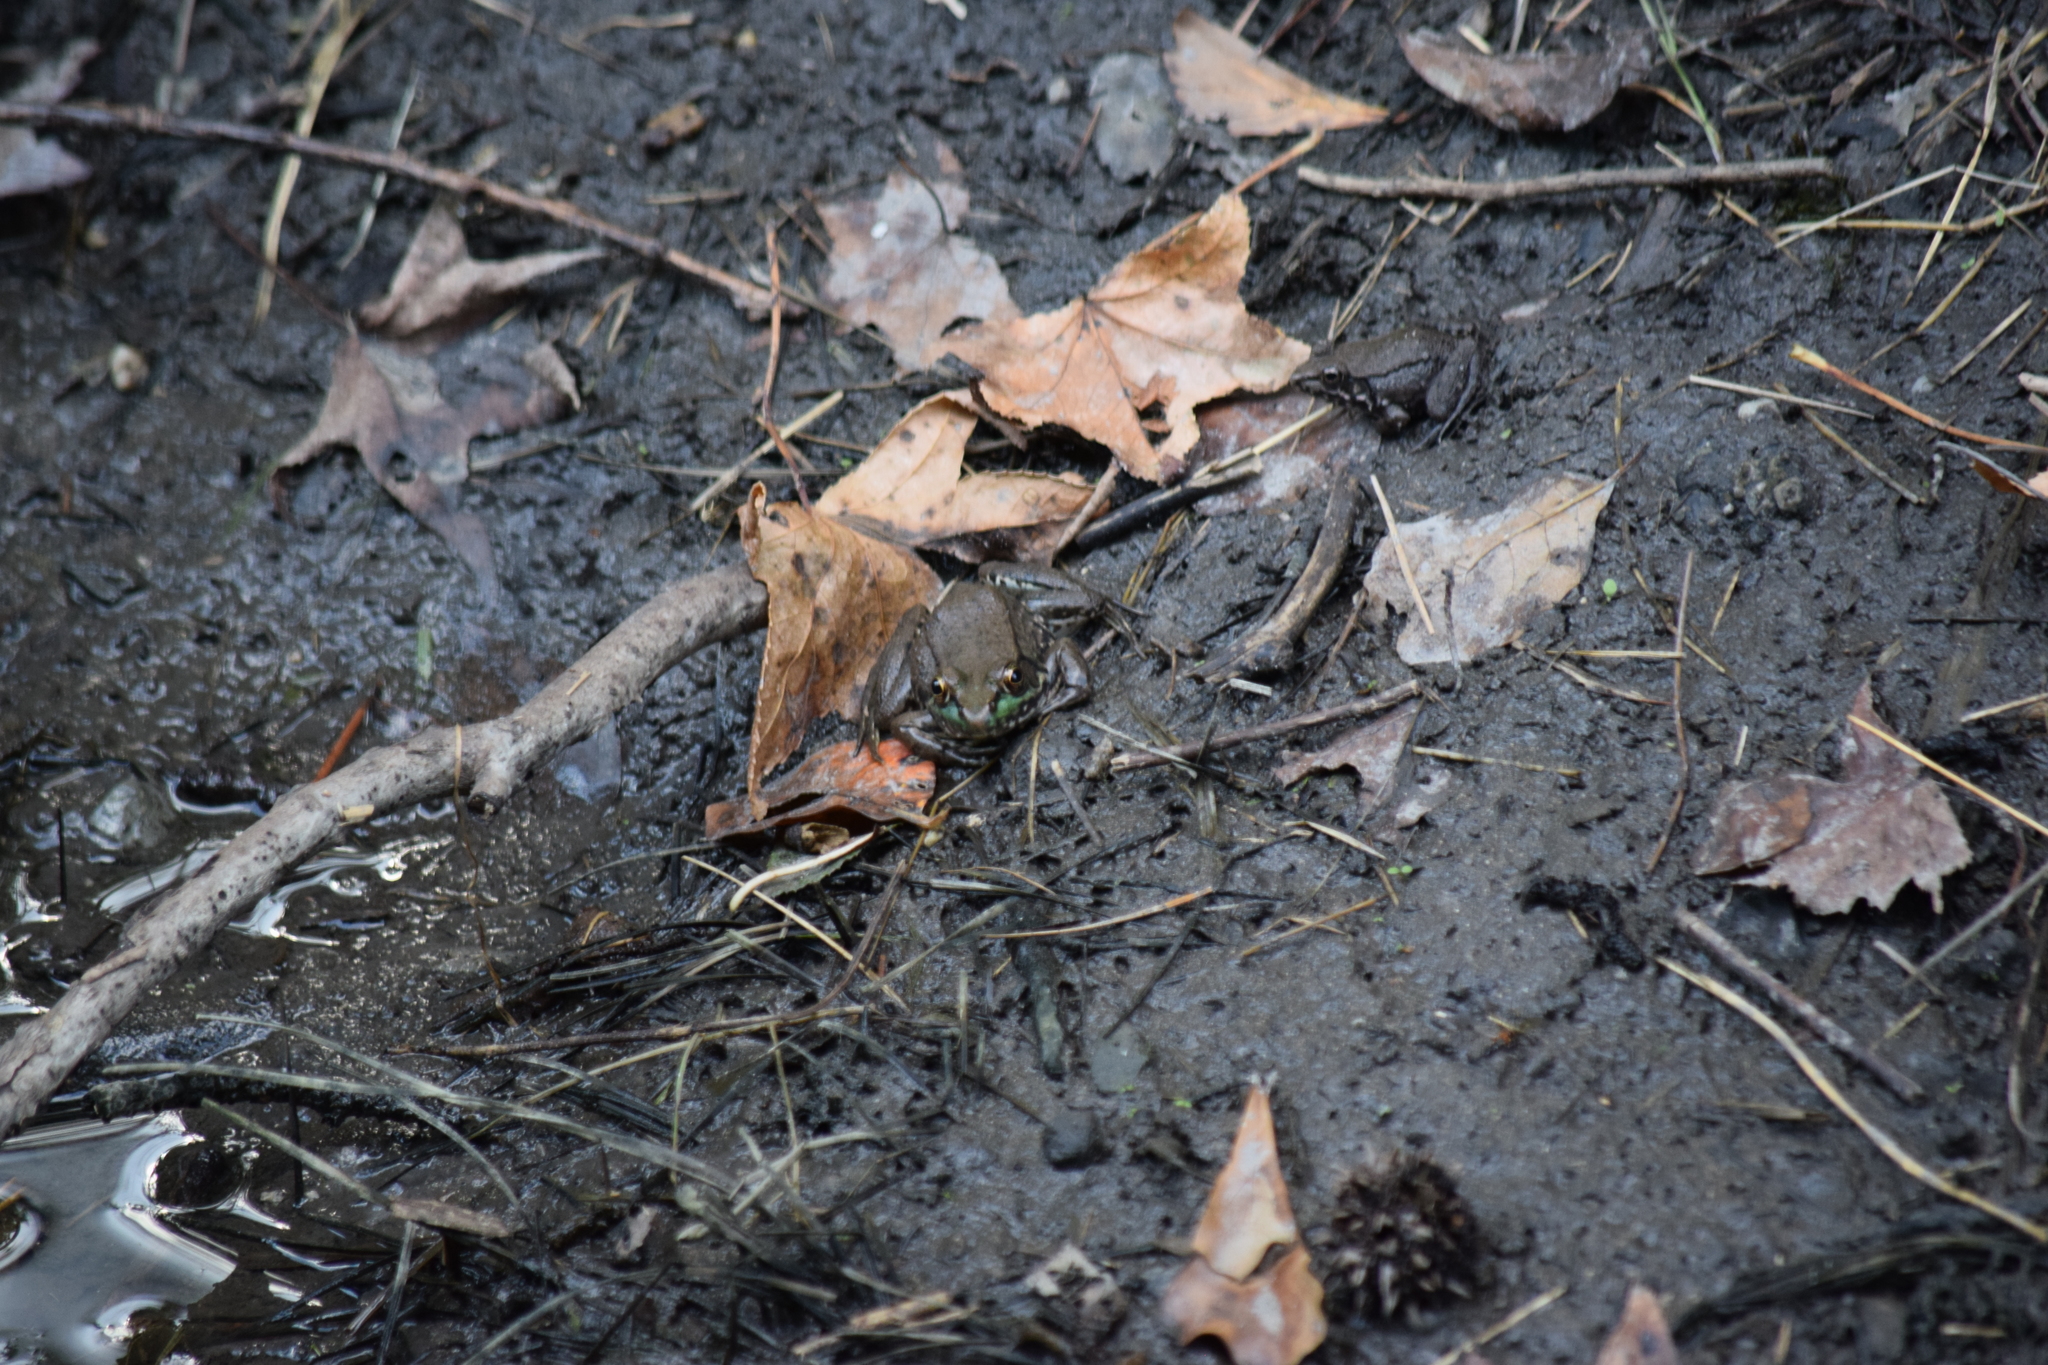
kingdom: Animalia
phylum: Chordata
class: Amphibia
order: Anura
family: Ranidae
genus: Lithobates
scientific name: Lithobates clamitans
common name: Green frog
